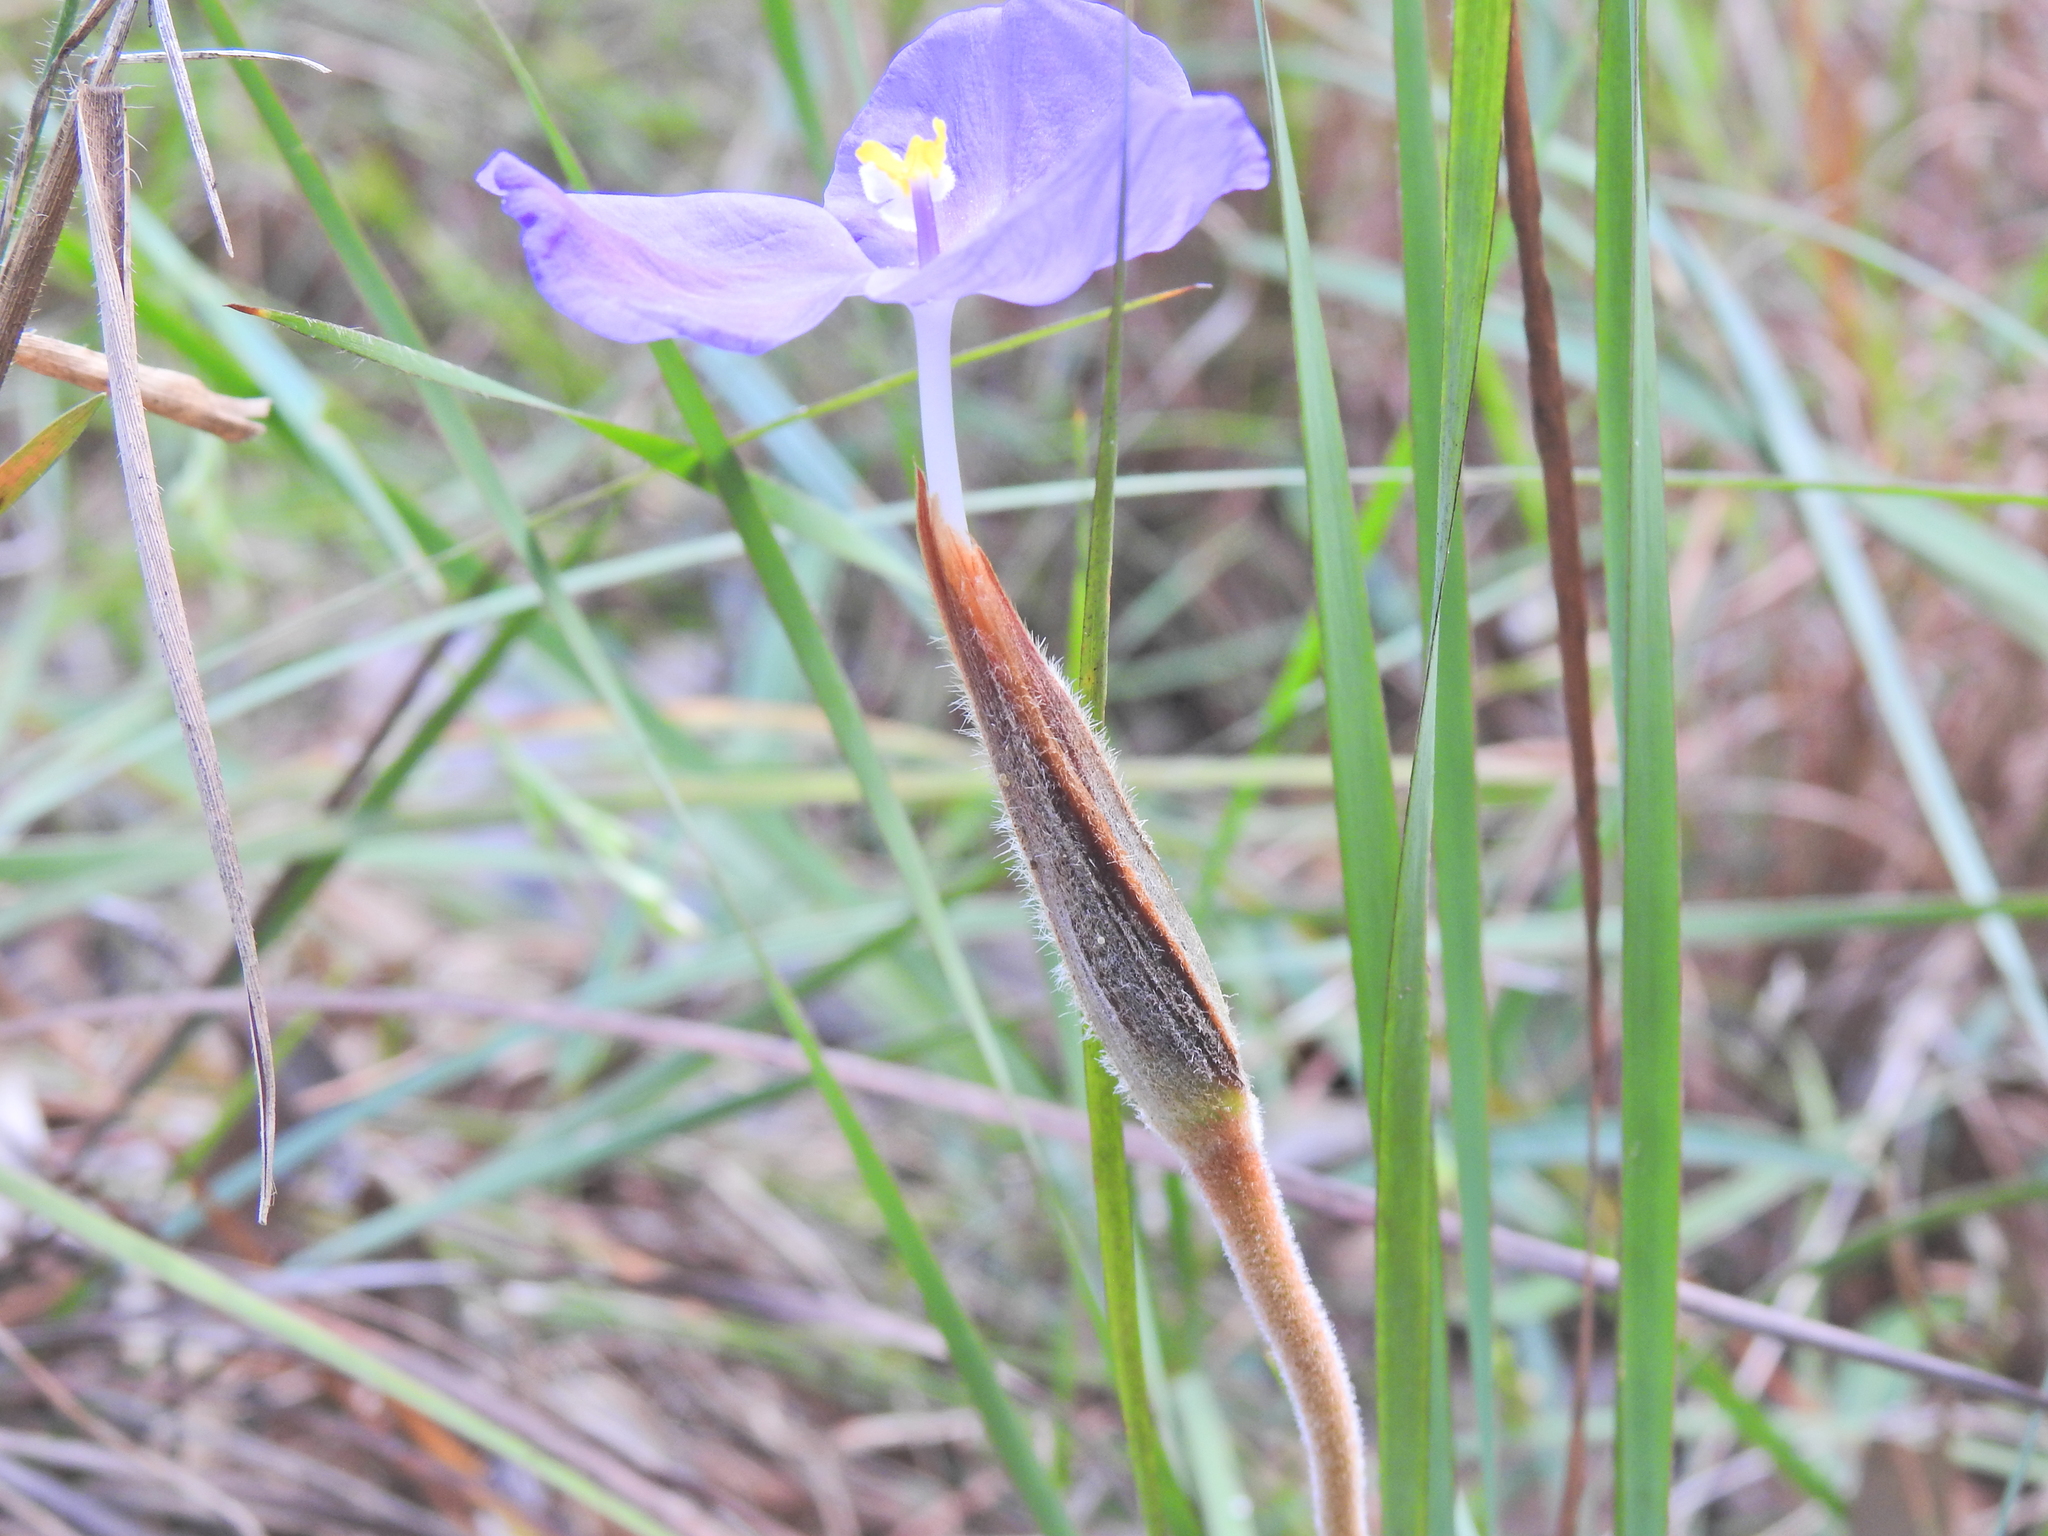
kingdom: Plantae
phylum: Tracheophyta
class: Liliopsida
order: Asparagales
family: Iridaceae
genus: Patersonia
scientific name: Patersonia sericea
